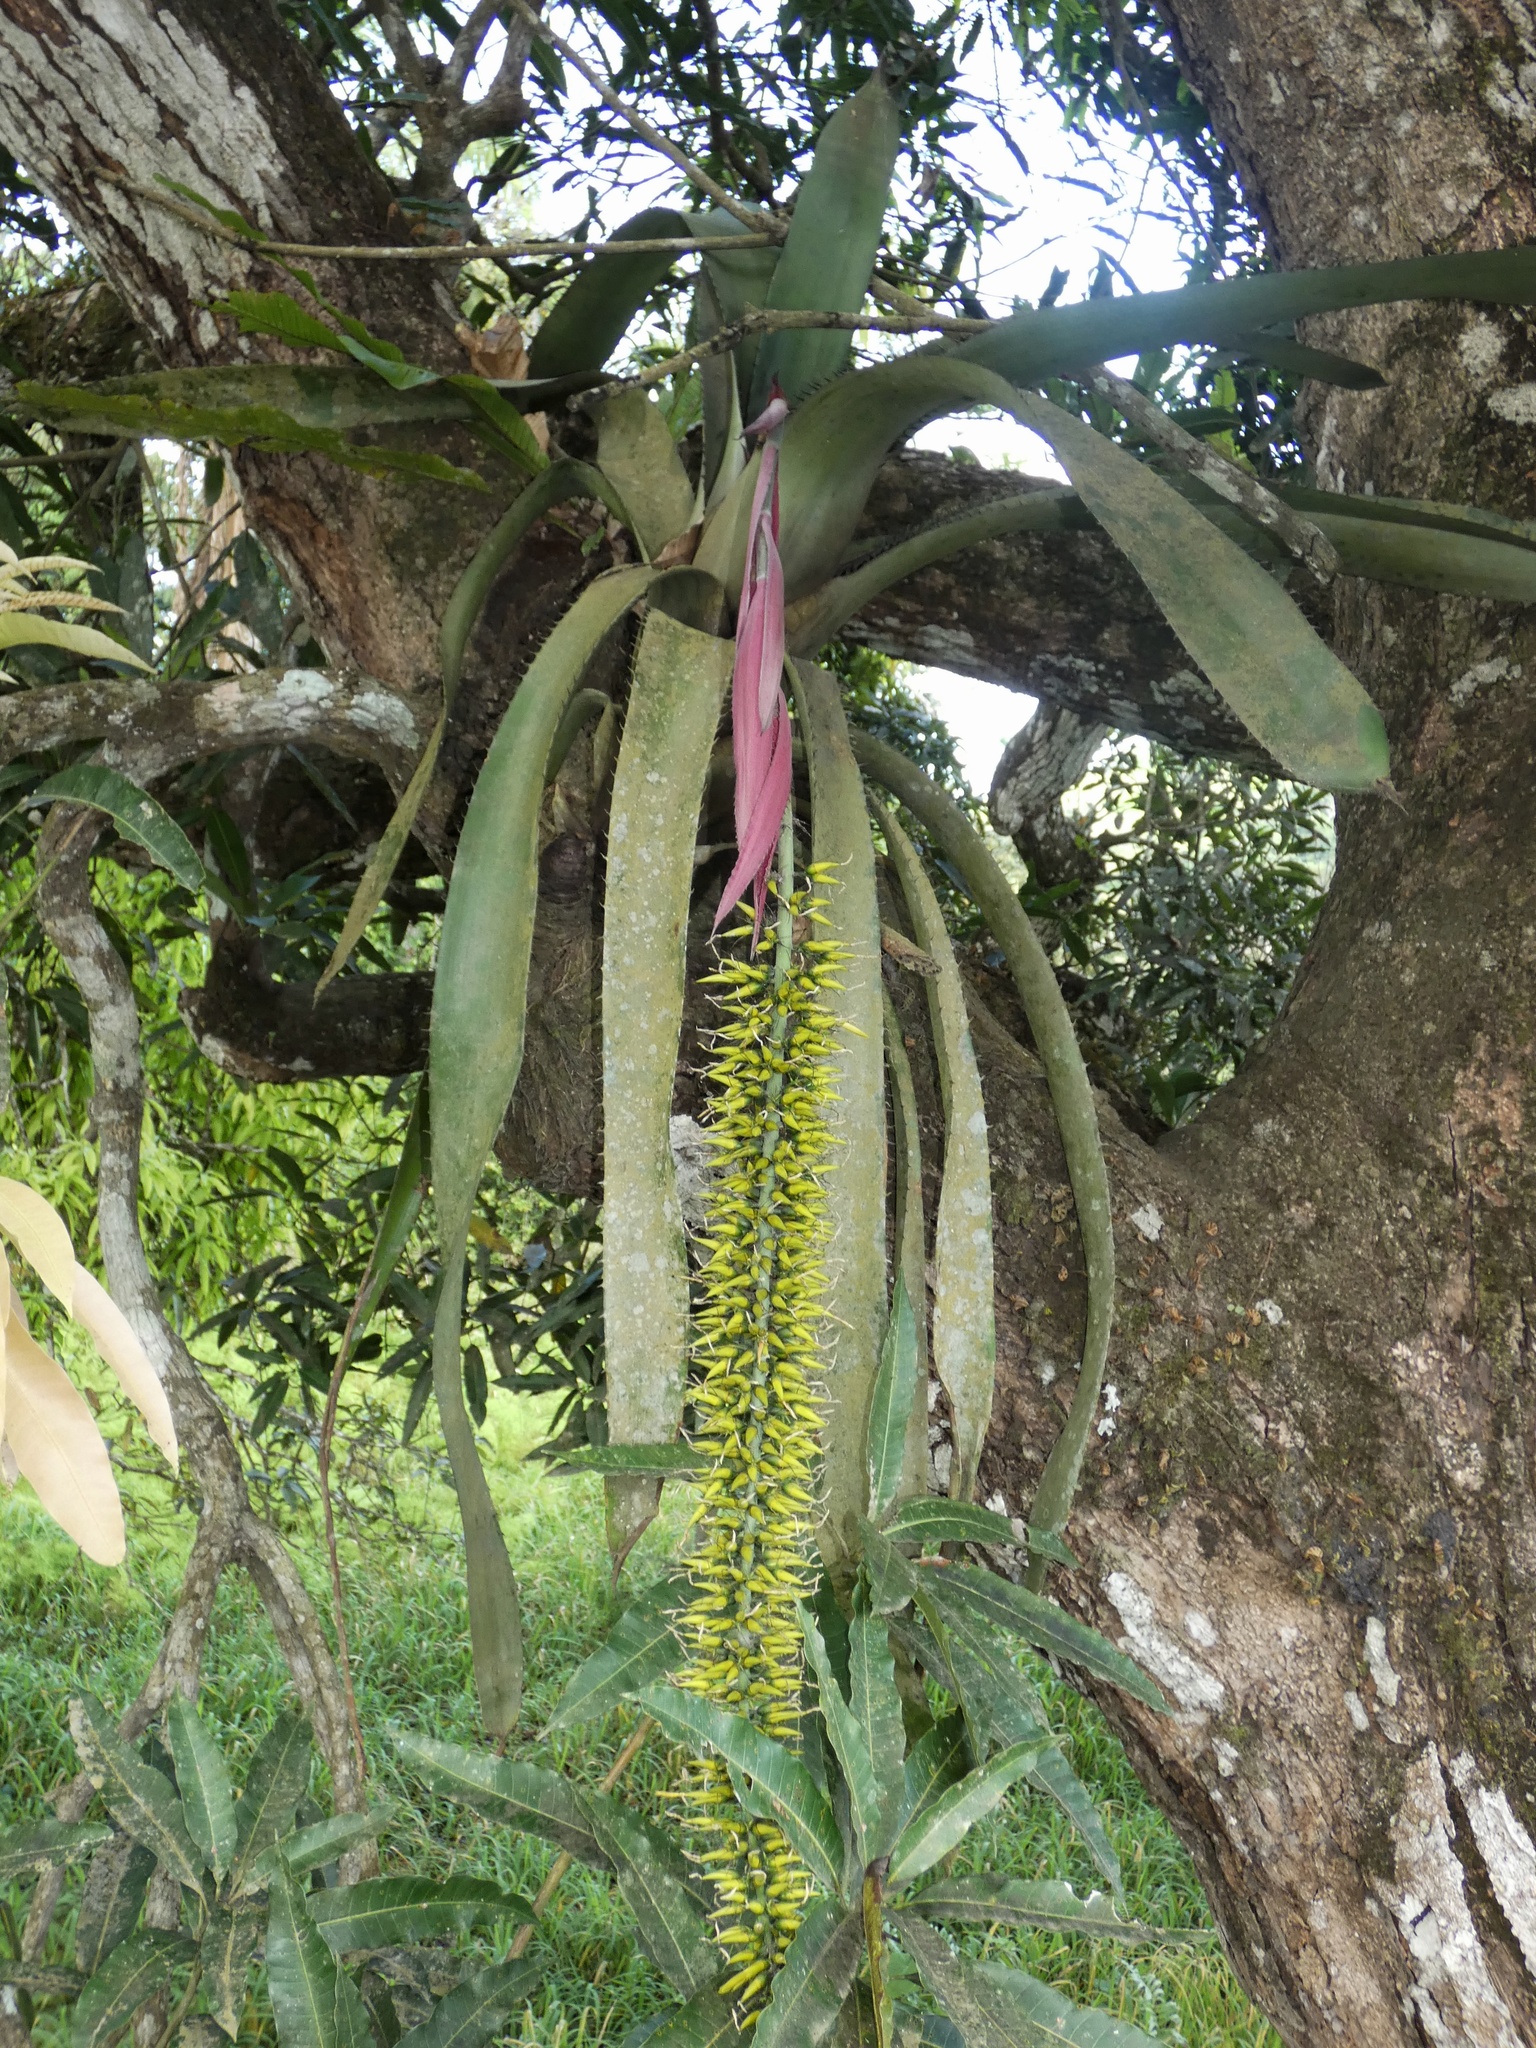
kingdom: Plantae
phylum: Tracheophyta
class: Liliopsida
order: Poales
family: Bromeliaceae
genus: Aechmea
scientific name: Aechmea setigera
